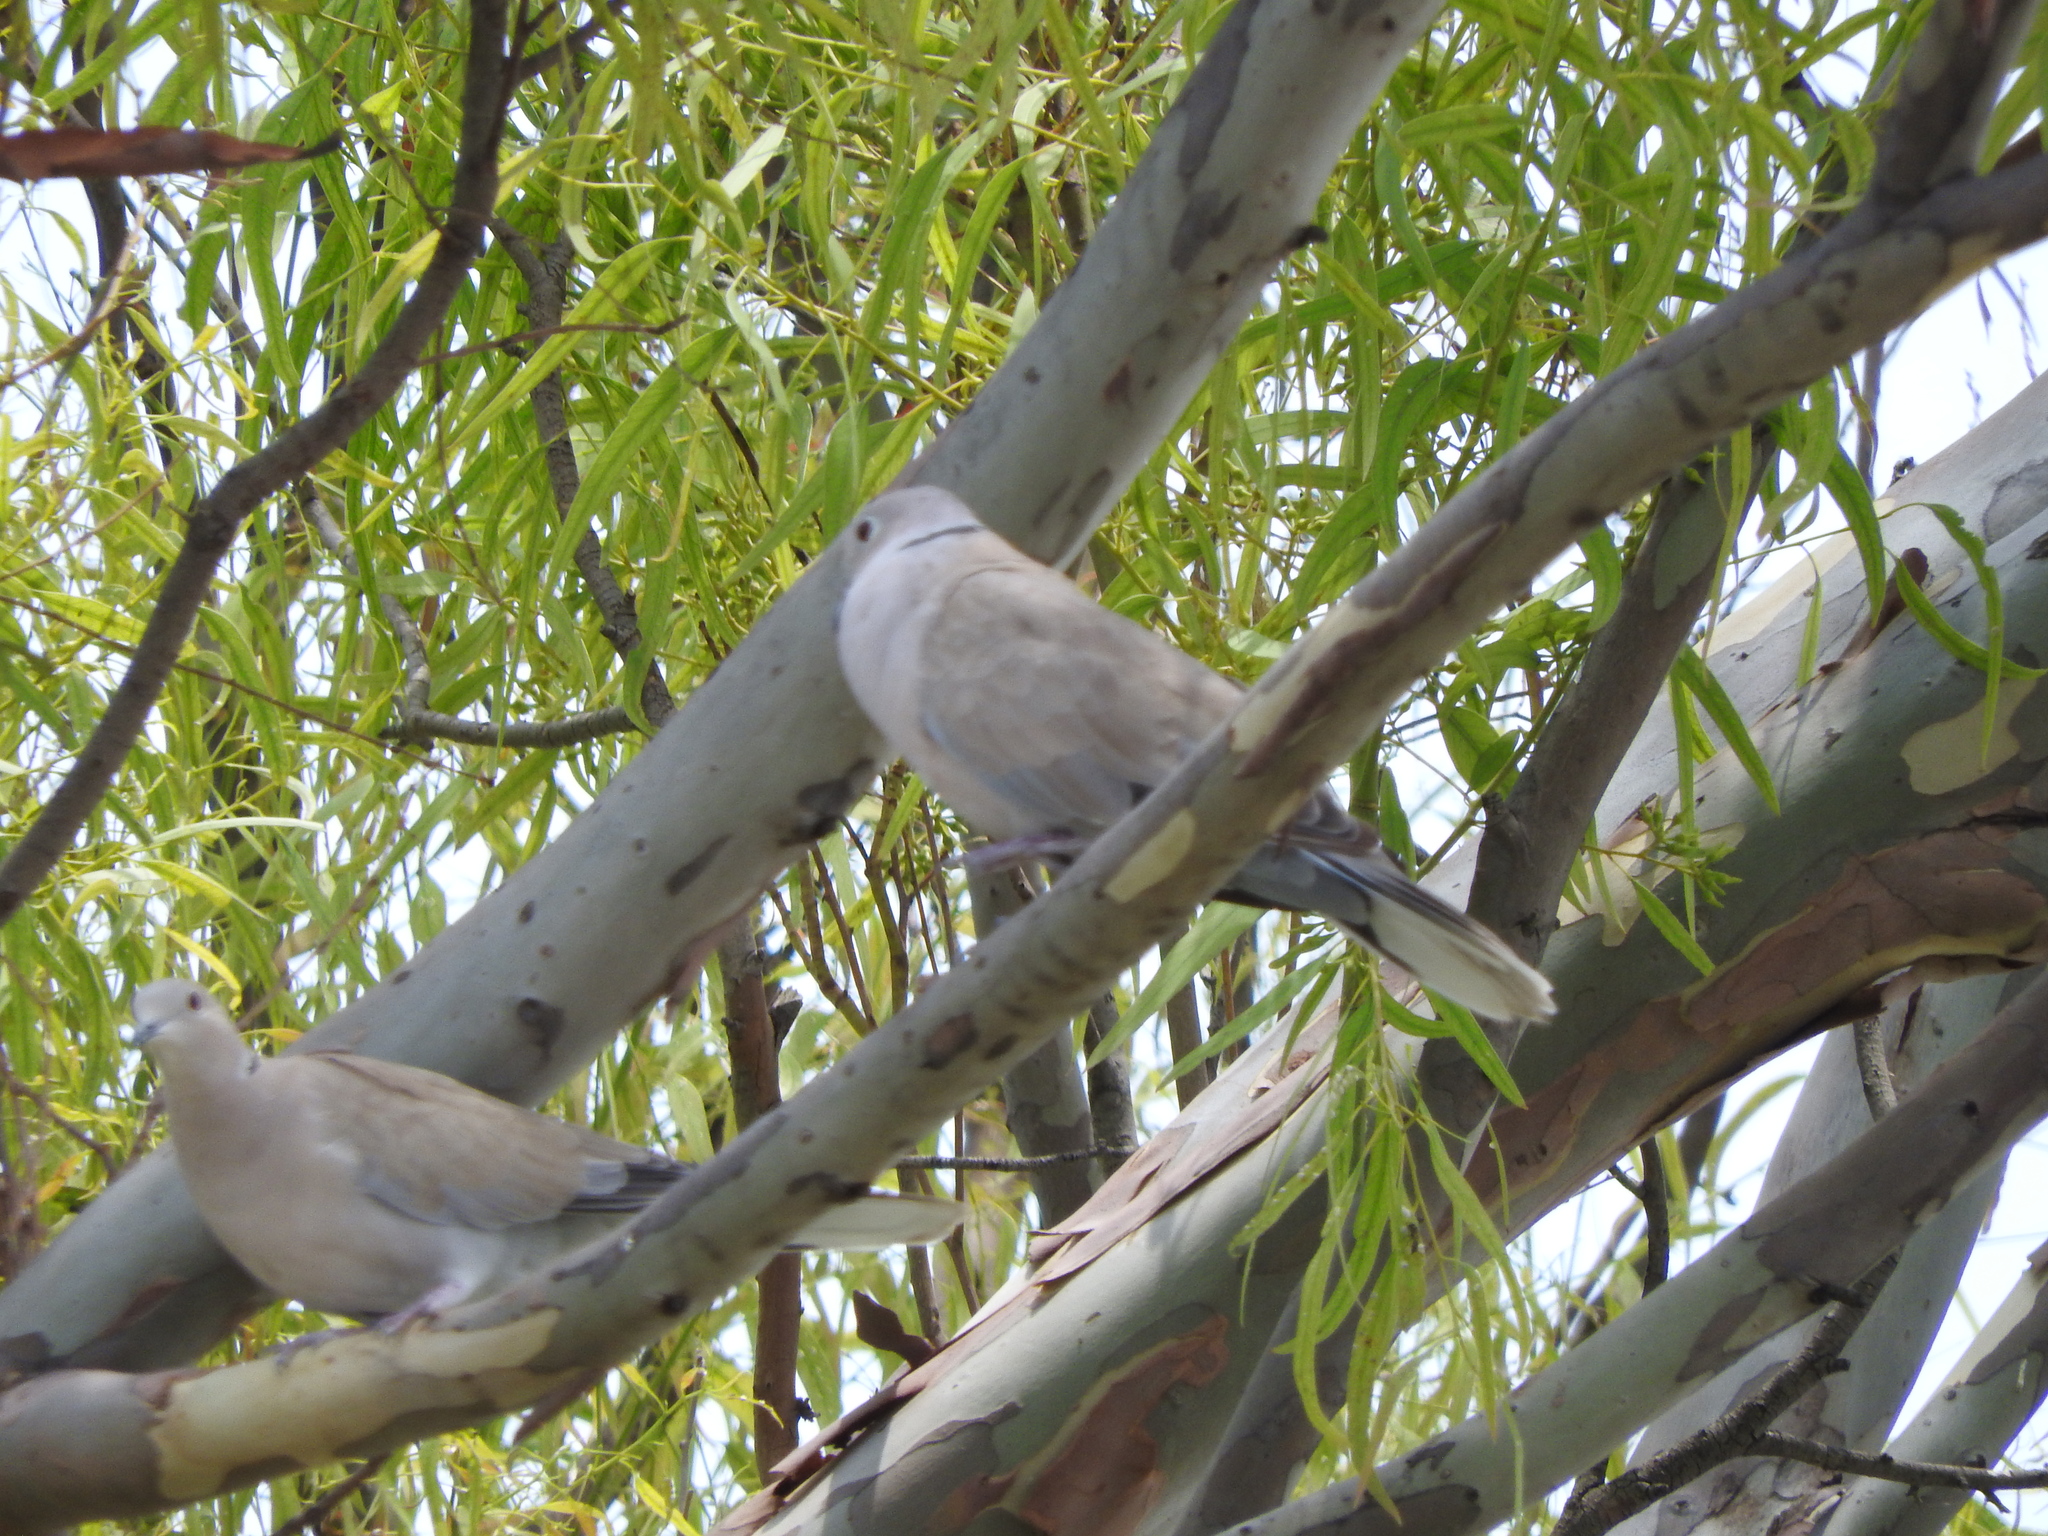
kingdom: Animalia
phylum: Chordata
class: Aves
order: Columbiformes
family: Columbidae
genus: Streptopelia
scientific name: Streptopelia decaocto
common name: Eurasian collared dove
